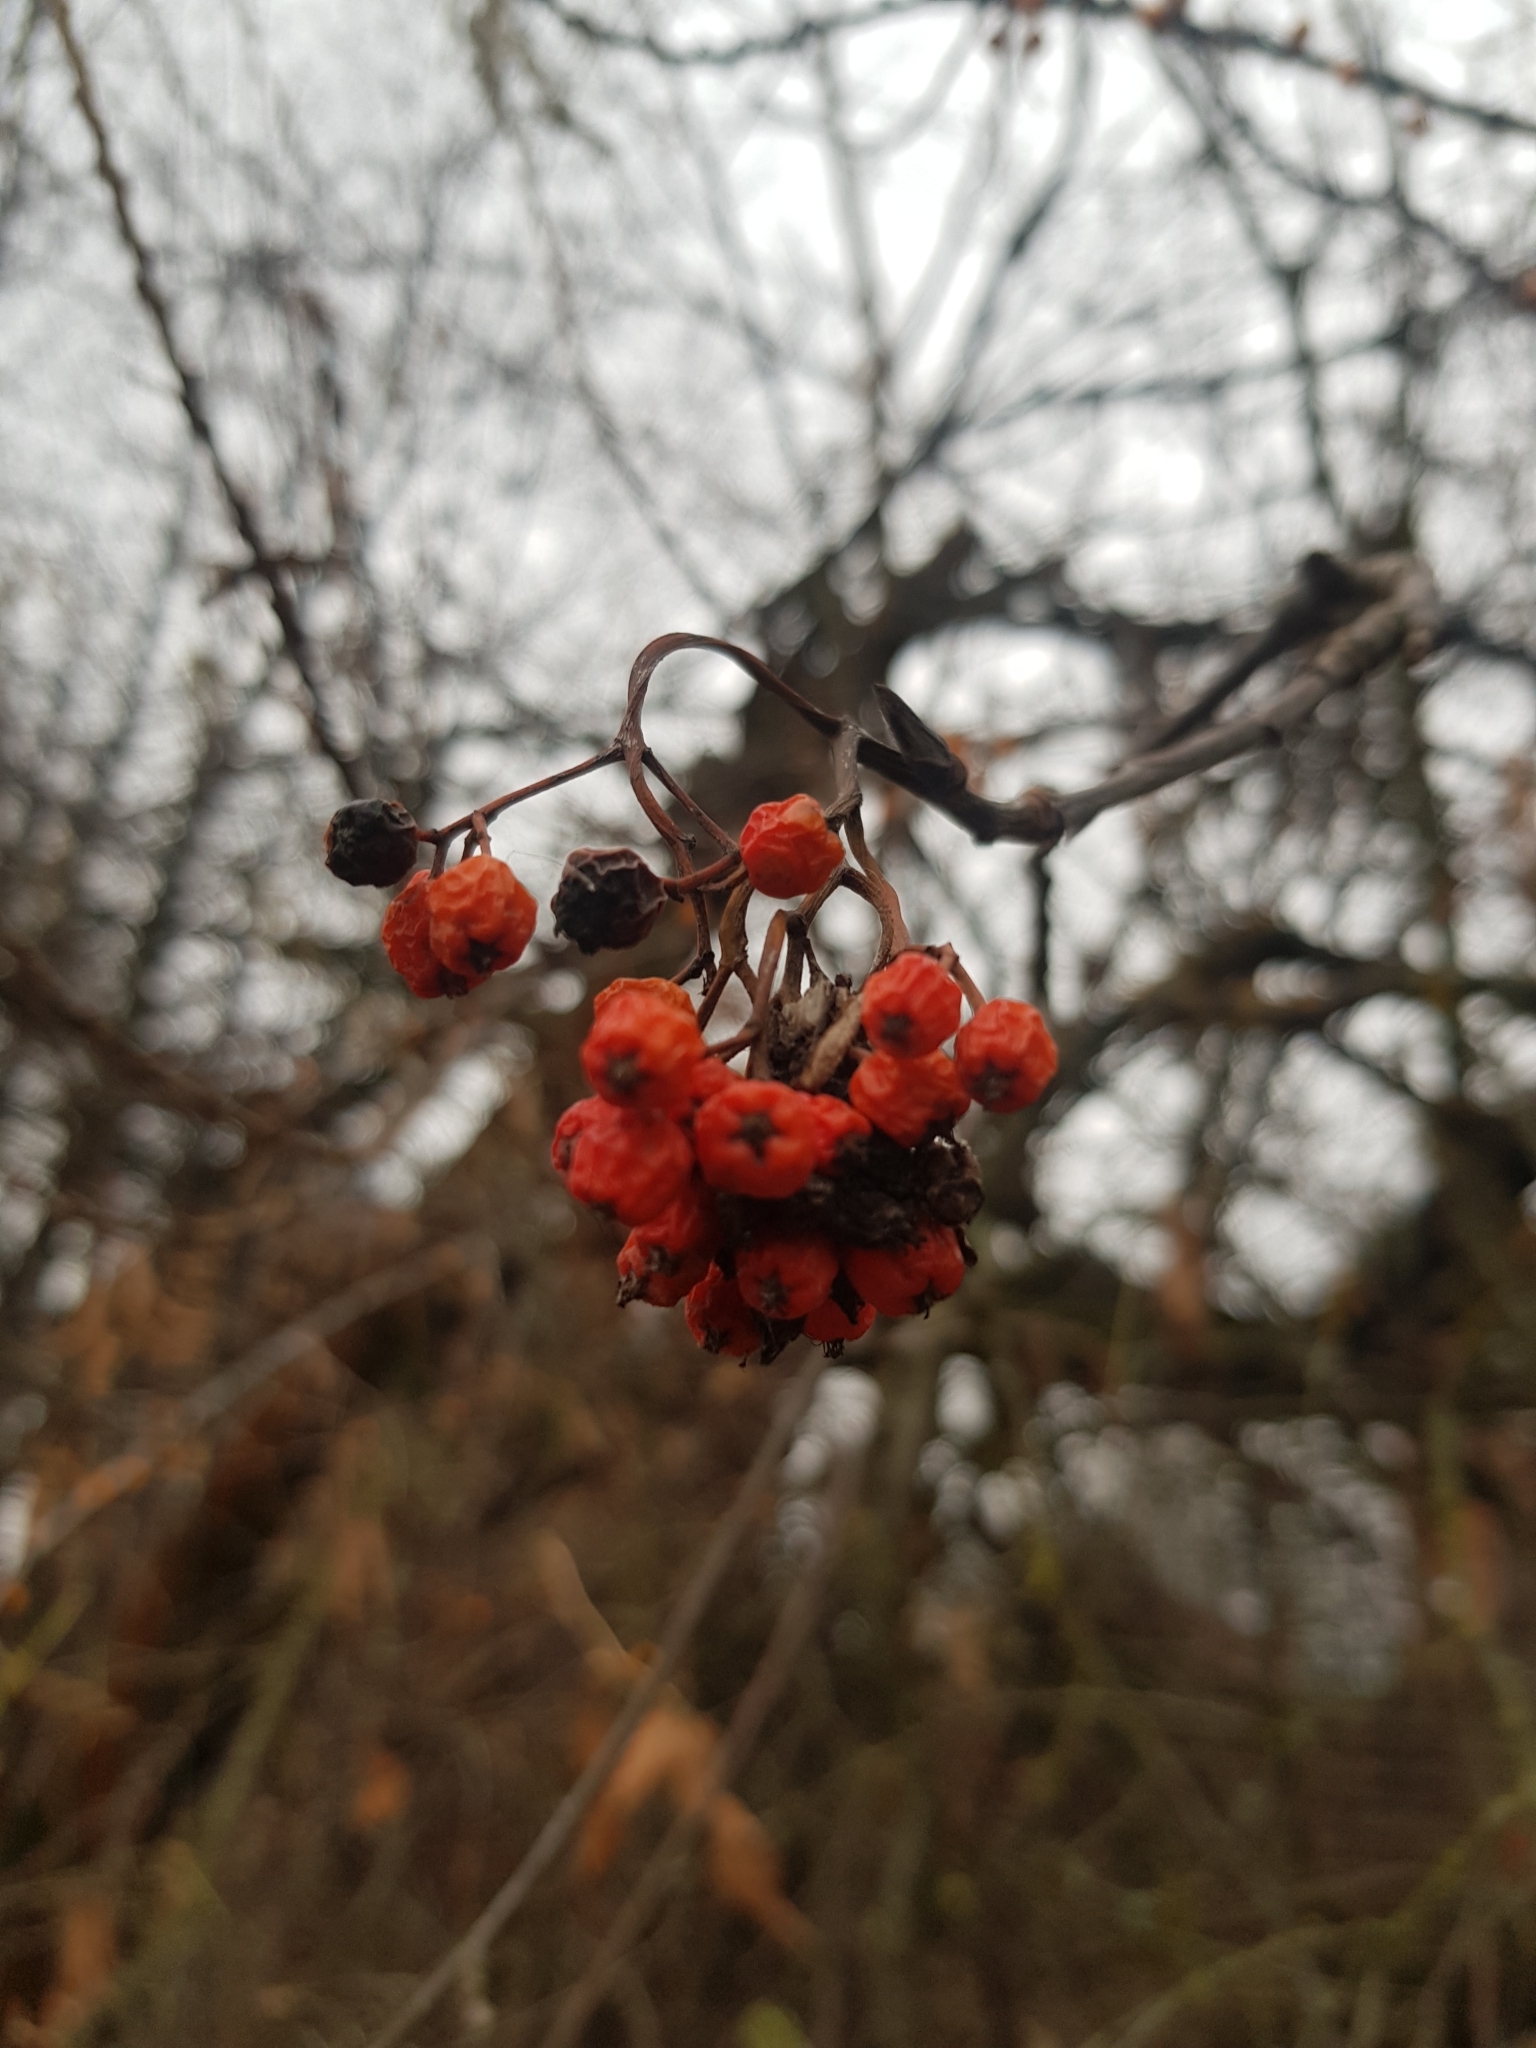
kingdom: Plantae
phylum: Tracheophyta
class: Magnoliopsida
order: Rosales
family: Rosaceae
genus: Sorbus
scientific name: Sorbus aucuparia
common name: Rowan
